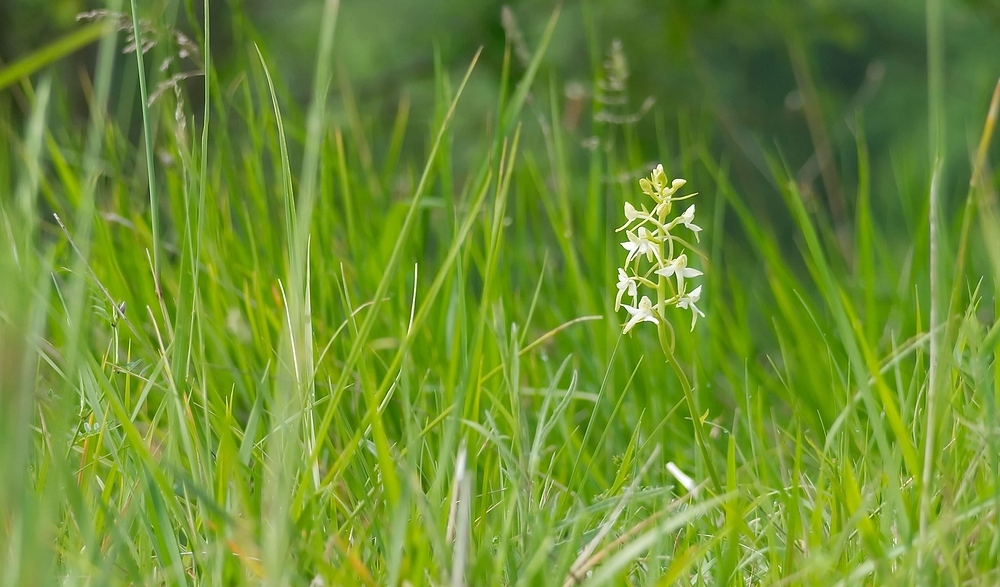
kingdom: Plantae
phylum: Tracheophyta
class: Liliopsida
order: Asparagales
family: Orchidaceae
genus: Platanthera
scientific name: Platanthera bifolia
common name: Lesser butterfly-orchid
